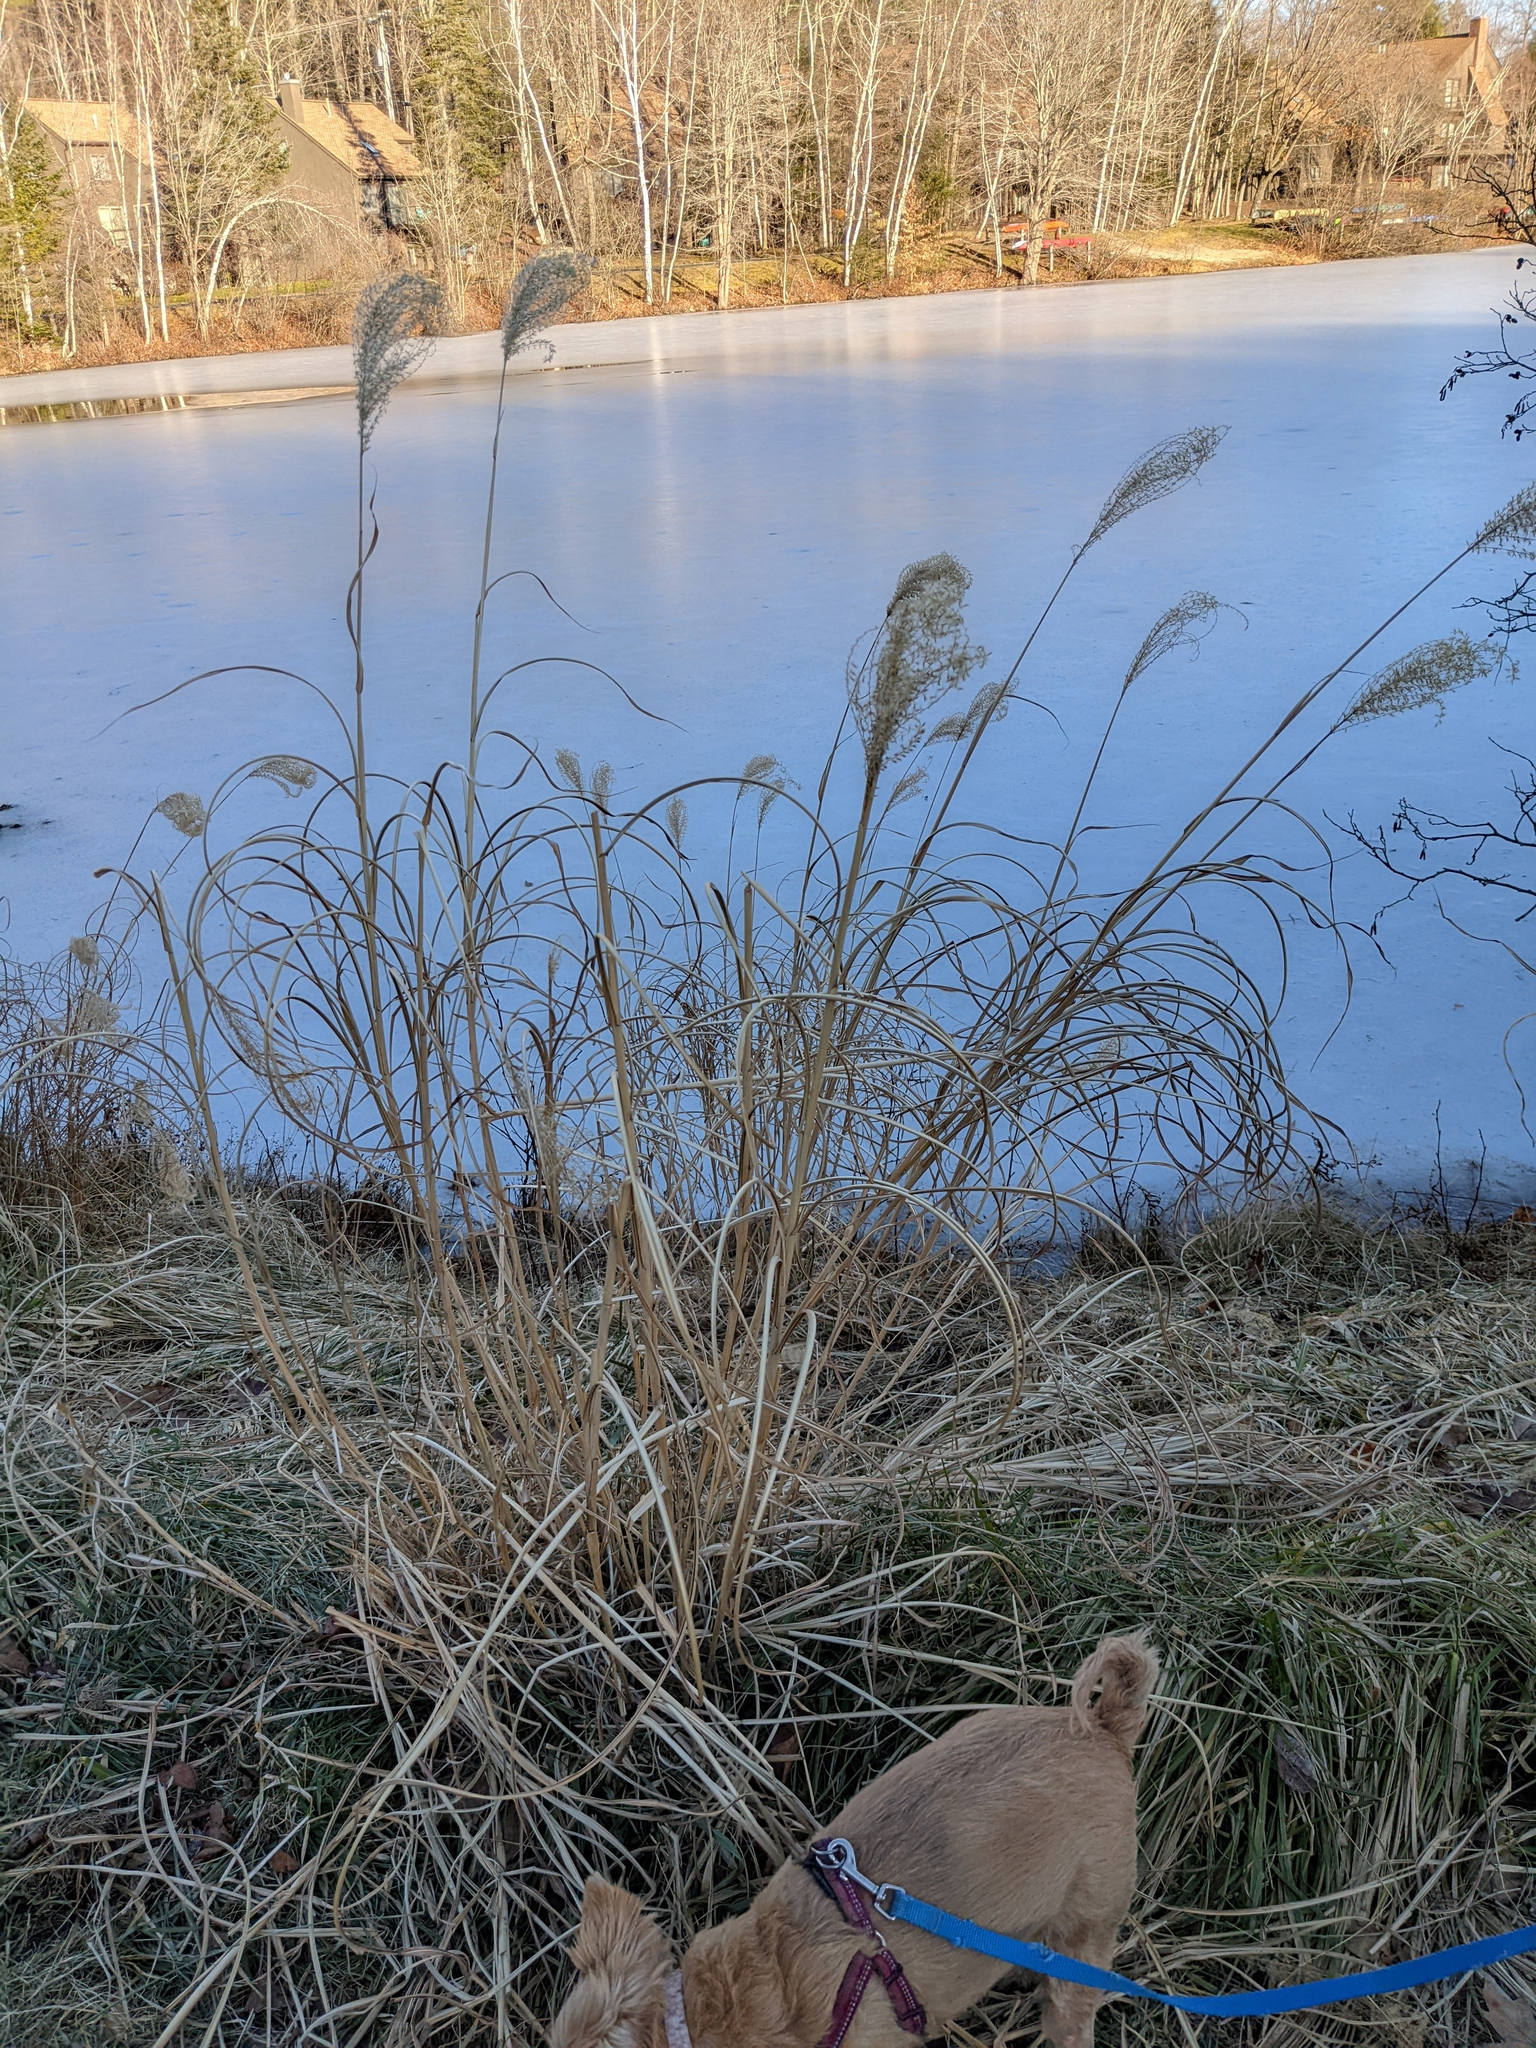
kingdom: Plantae
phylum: Tracheophyta
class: Liliopsida
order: Poales
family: Poaceae
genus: Miscanthus
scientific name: Miscanthus sinensis
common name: Chinese silvergrass
